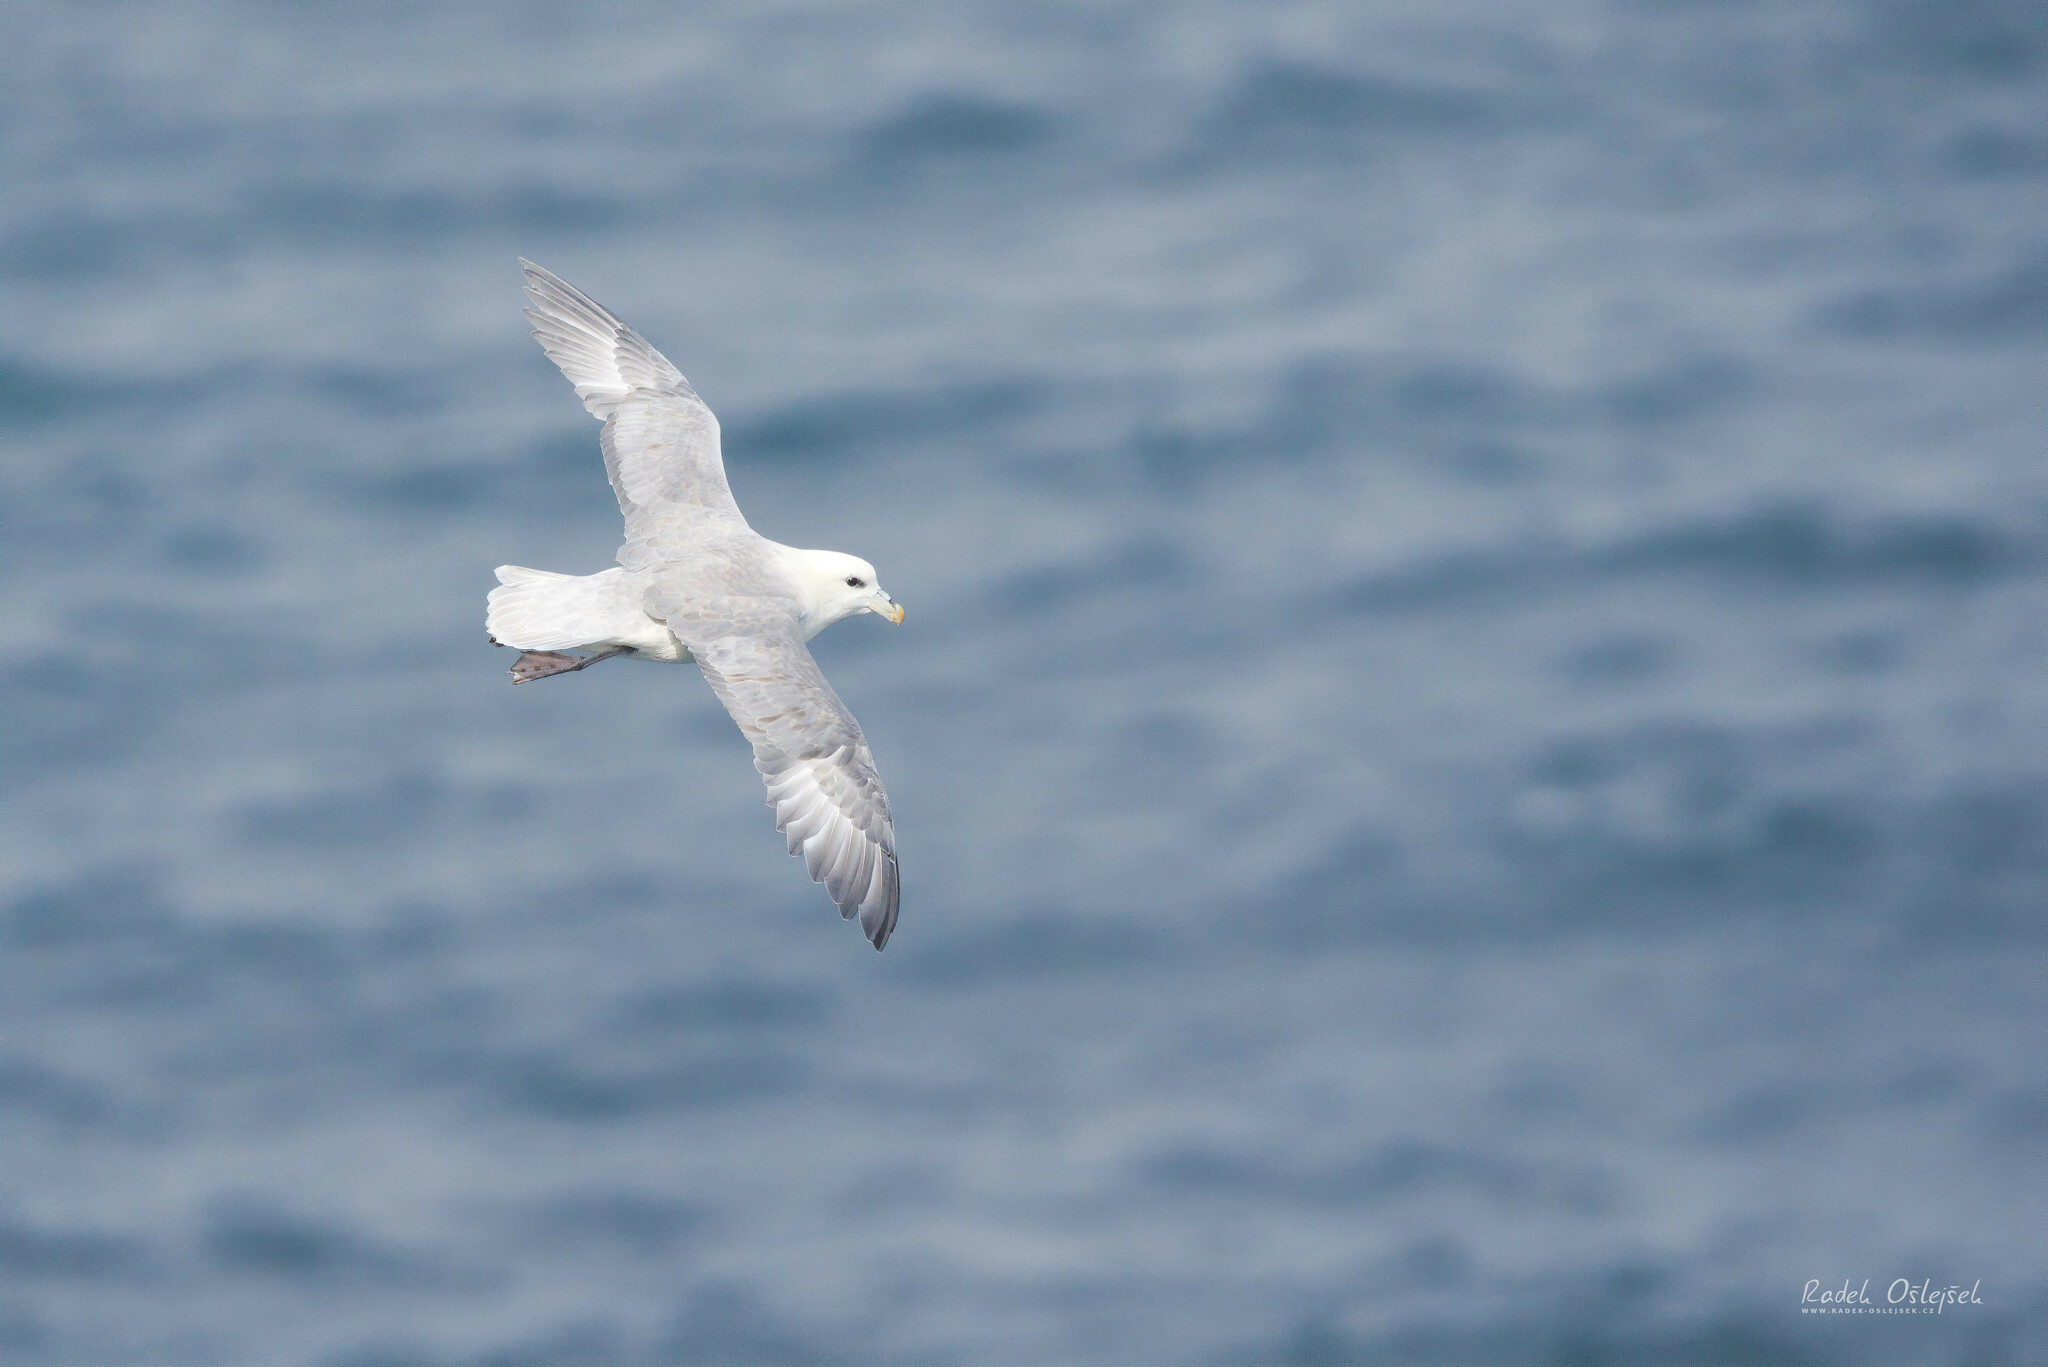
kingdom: Animalia
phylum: Chordata
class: Aves
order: Procellariiformes
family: Procellariidae
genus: Fulmarus
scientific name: Fulmarus glacialis
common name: Northern fulmar
